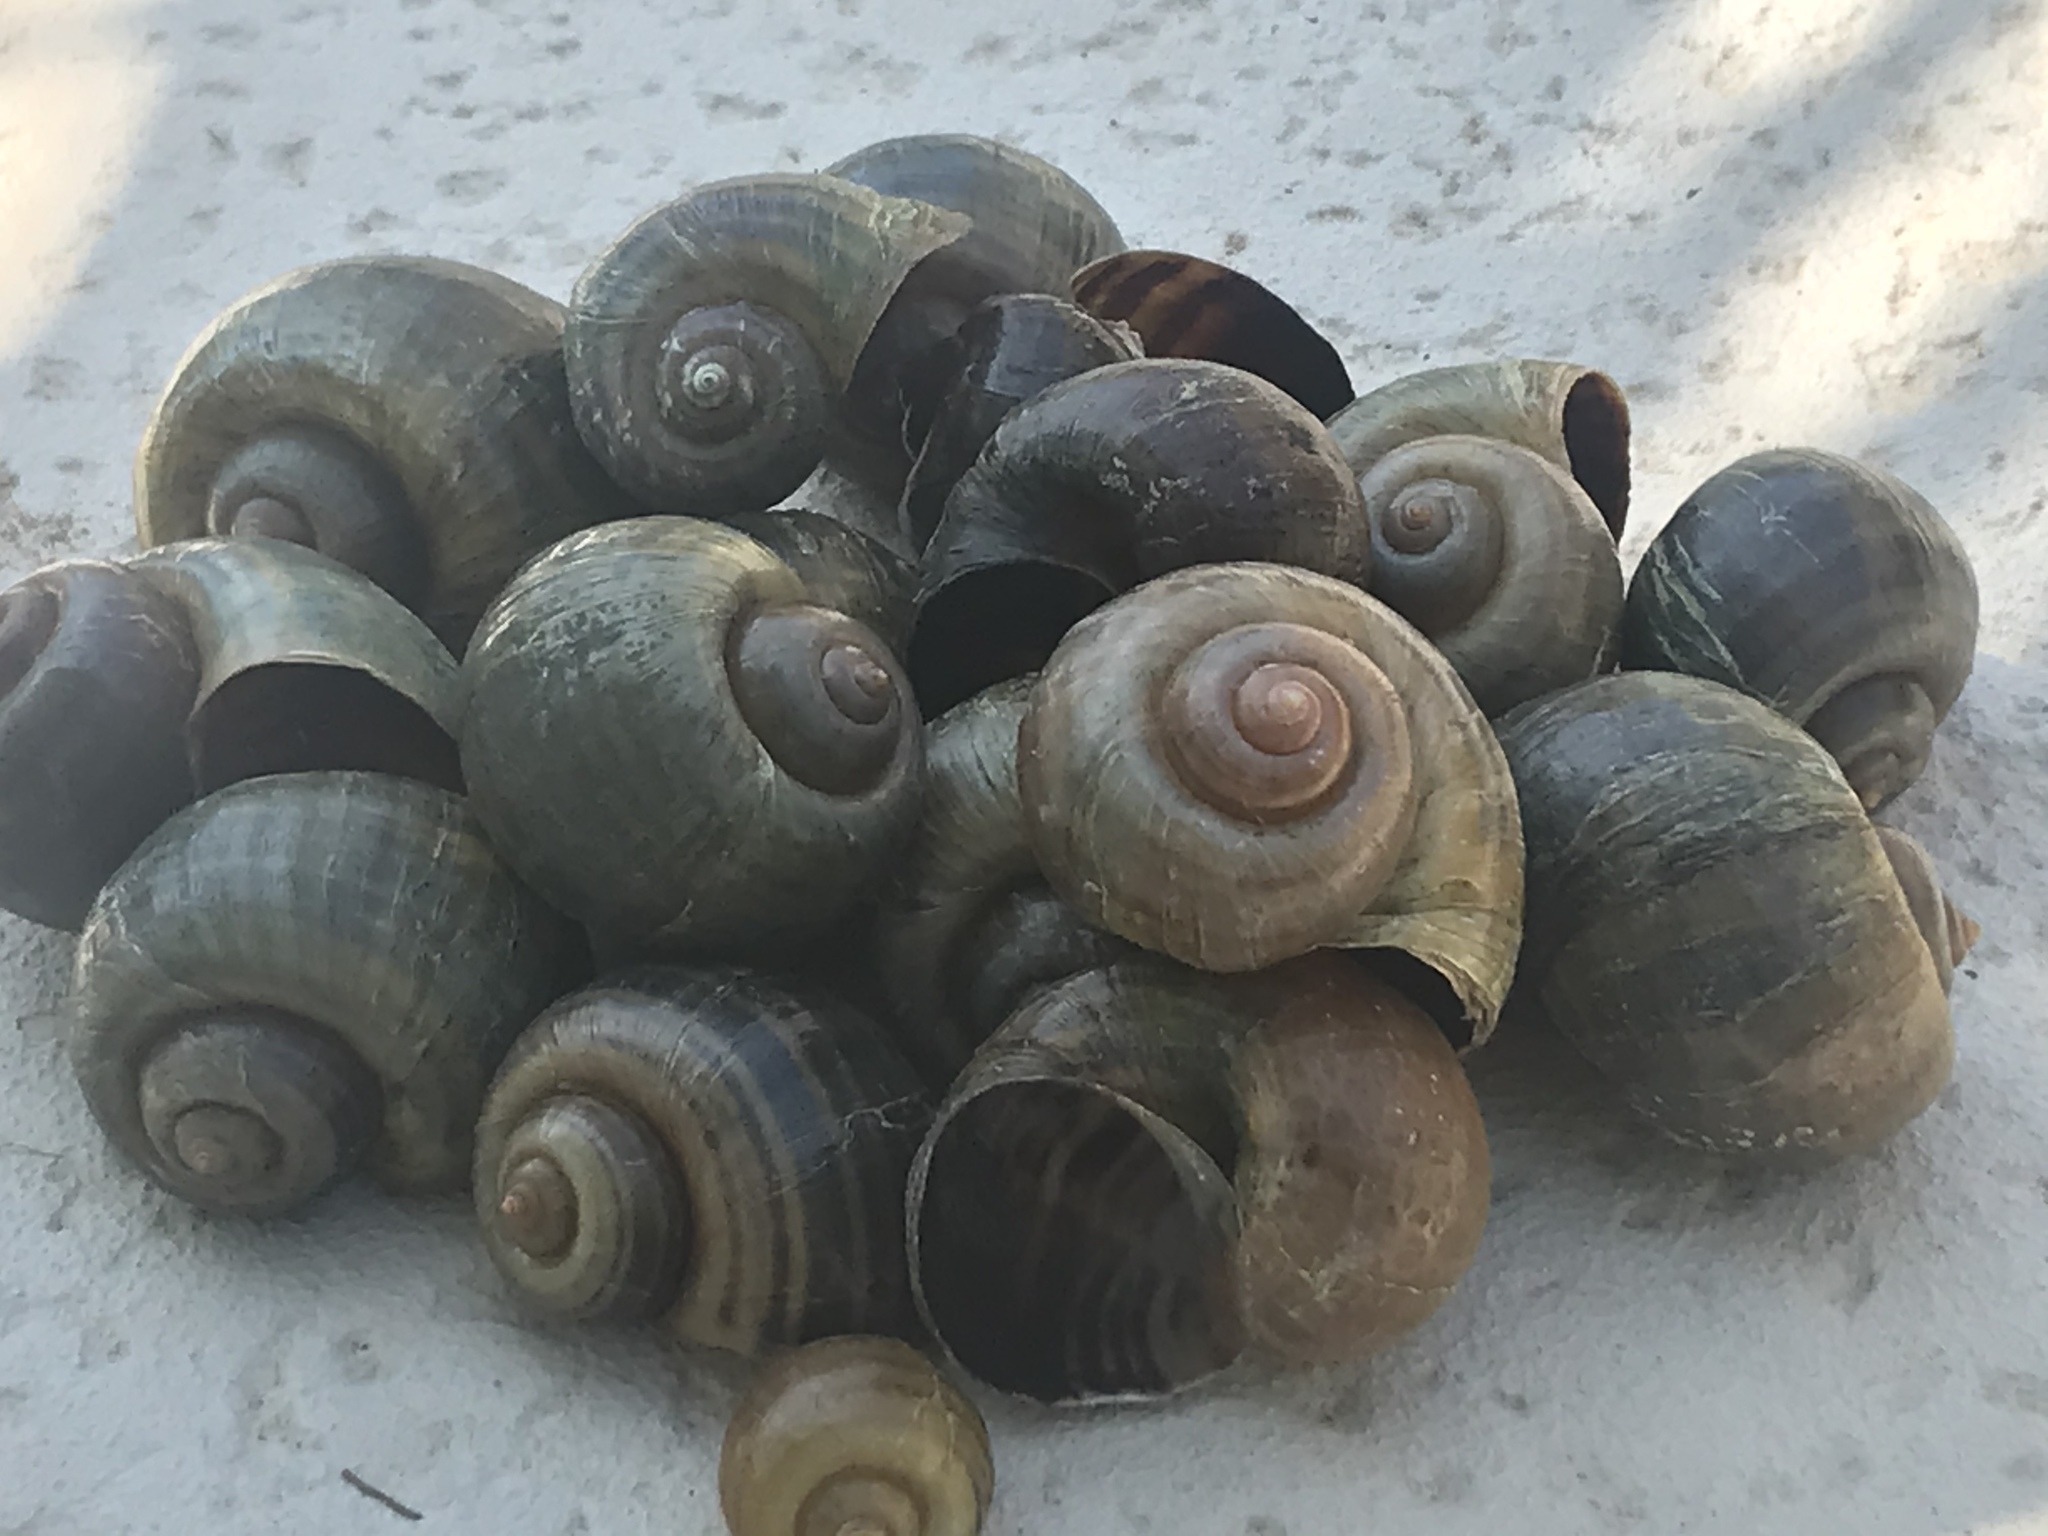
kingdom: Animalia
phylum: Mollusca
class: Gastropoda
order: Architaenioglossa
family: Ampullariidae
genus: Pomacea
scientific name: Pomacea canaliculata
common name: Channeled applesnail
